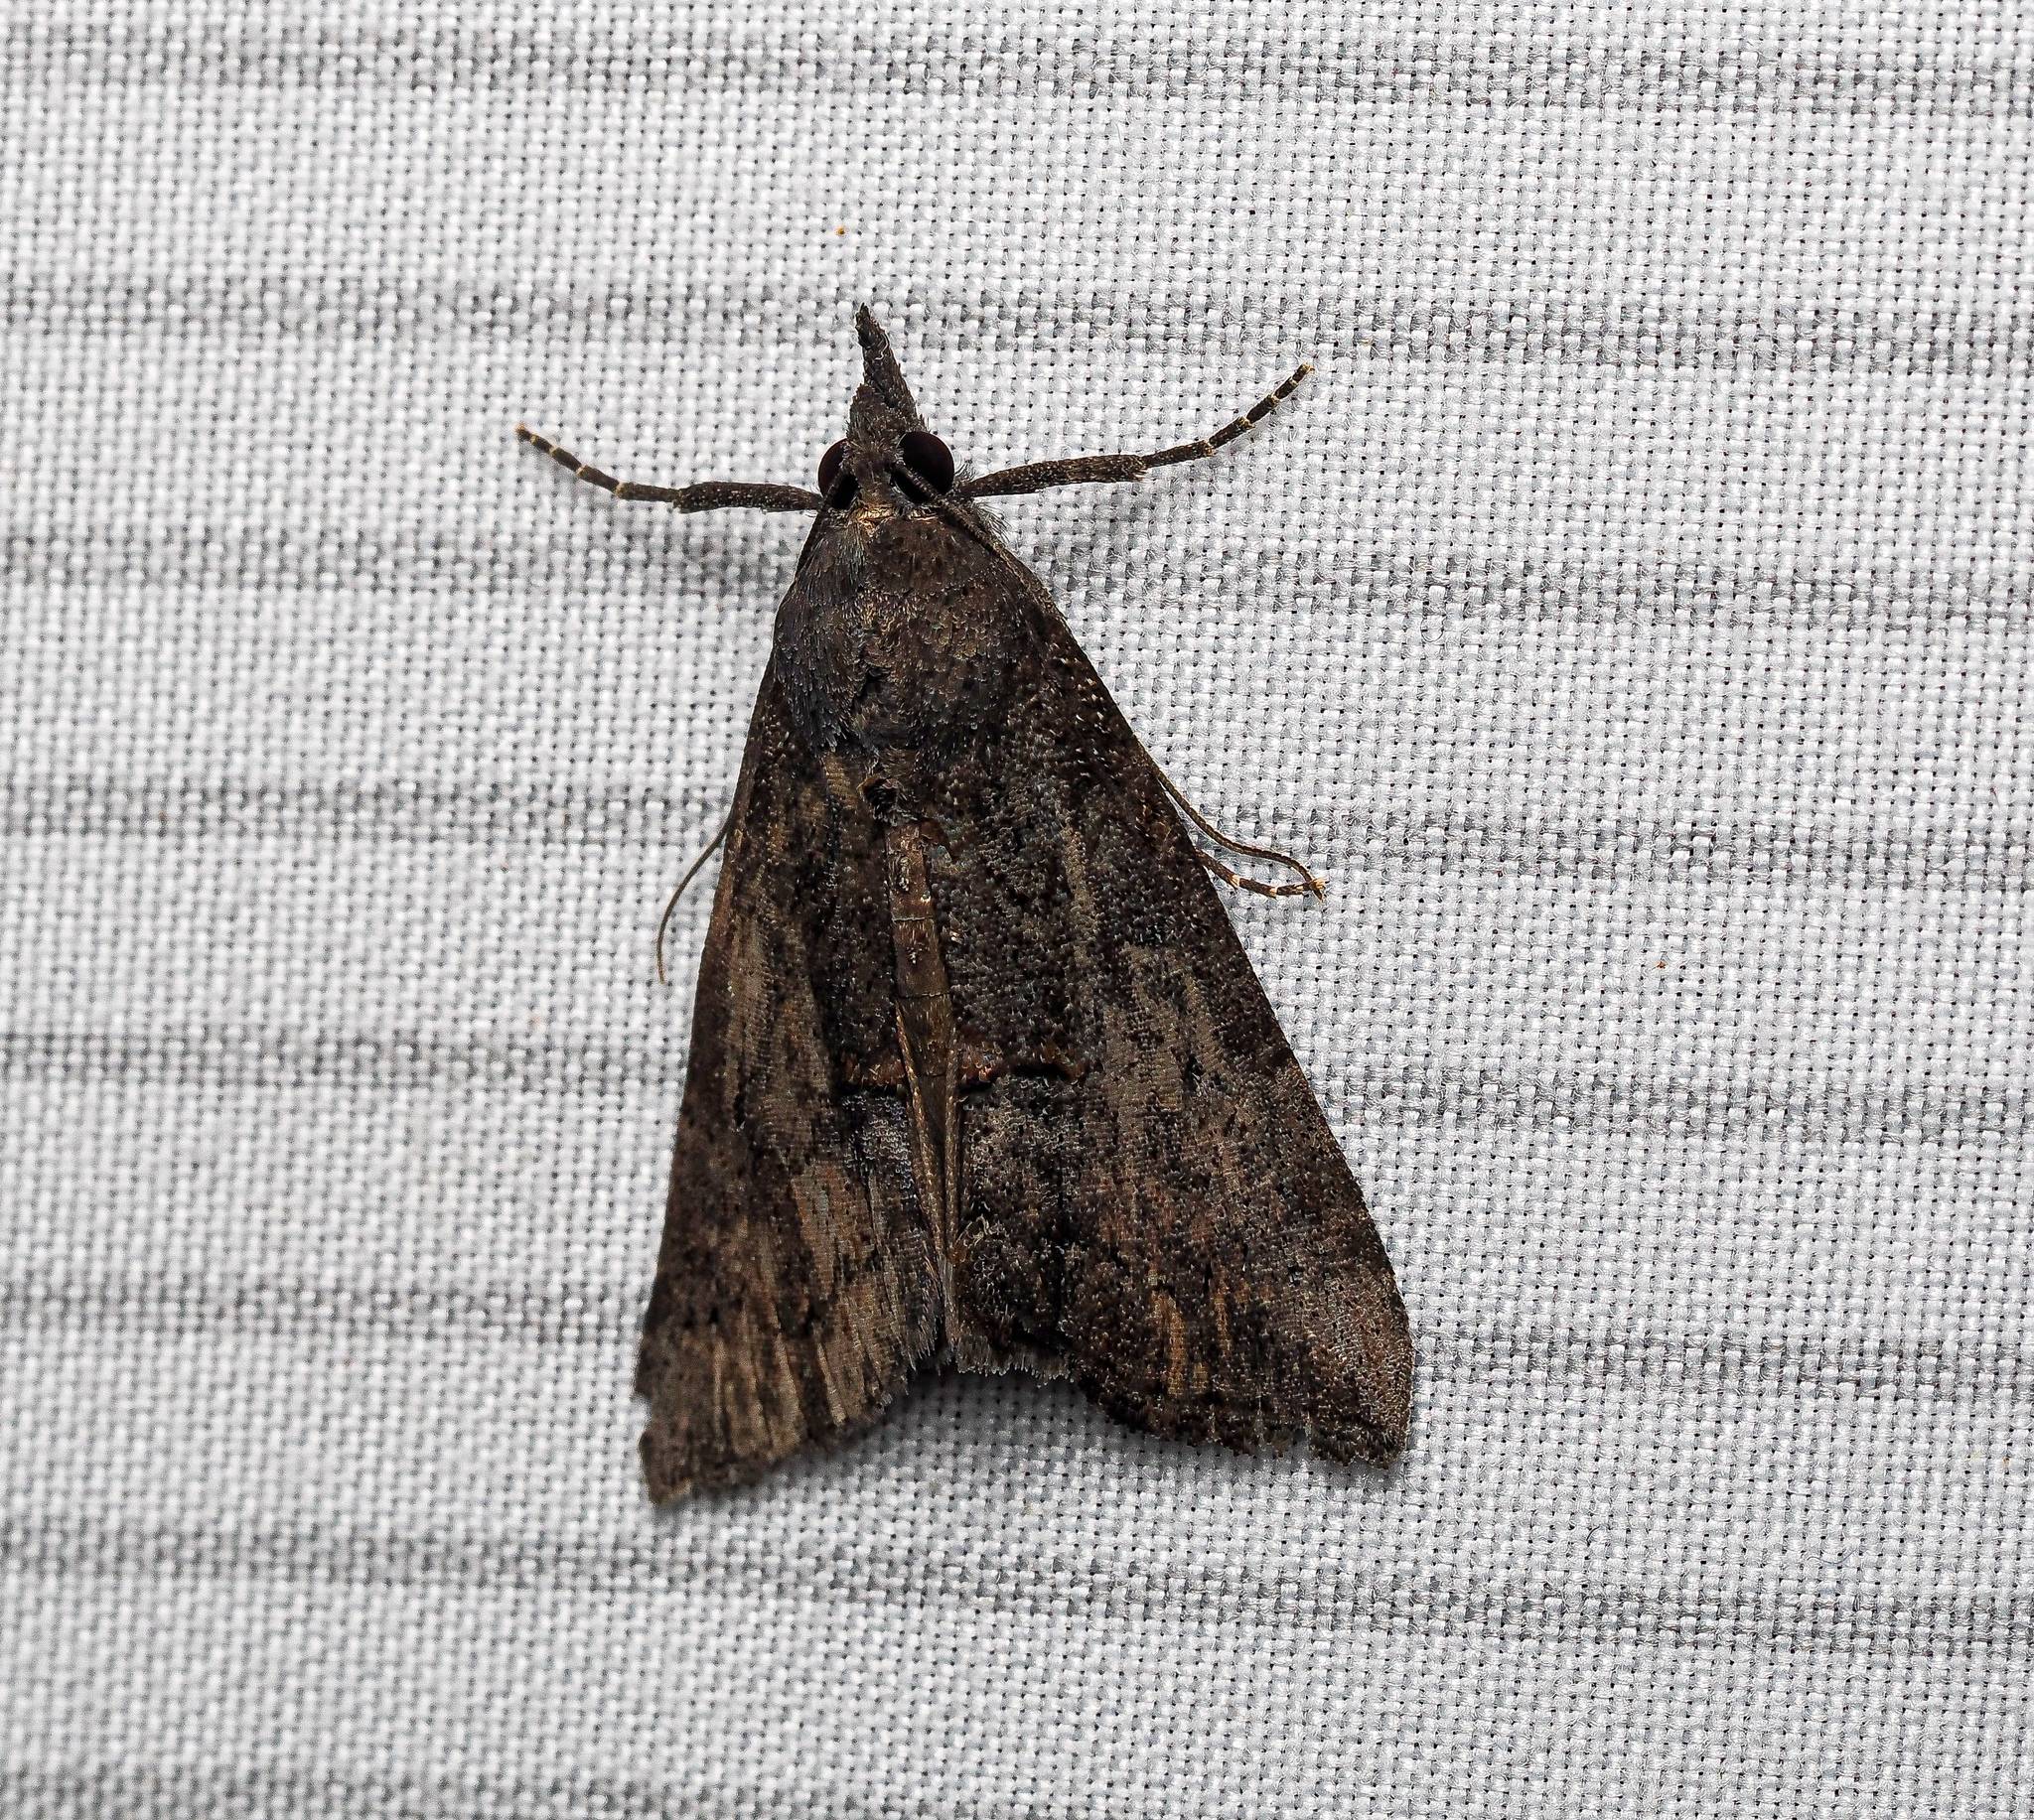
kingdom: Animalia
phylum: Arthropoda
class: Insecta
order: Lepidoptera
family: Erebidae
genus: Hypena
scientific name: Hypena scabra
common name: Green cloverworm
